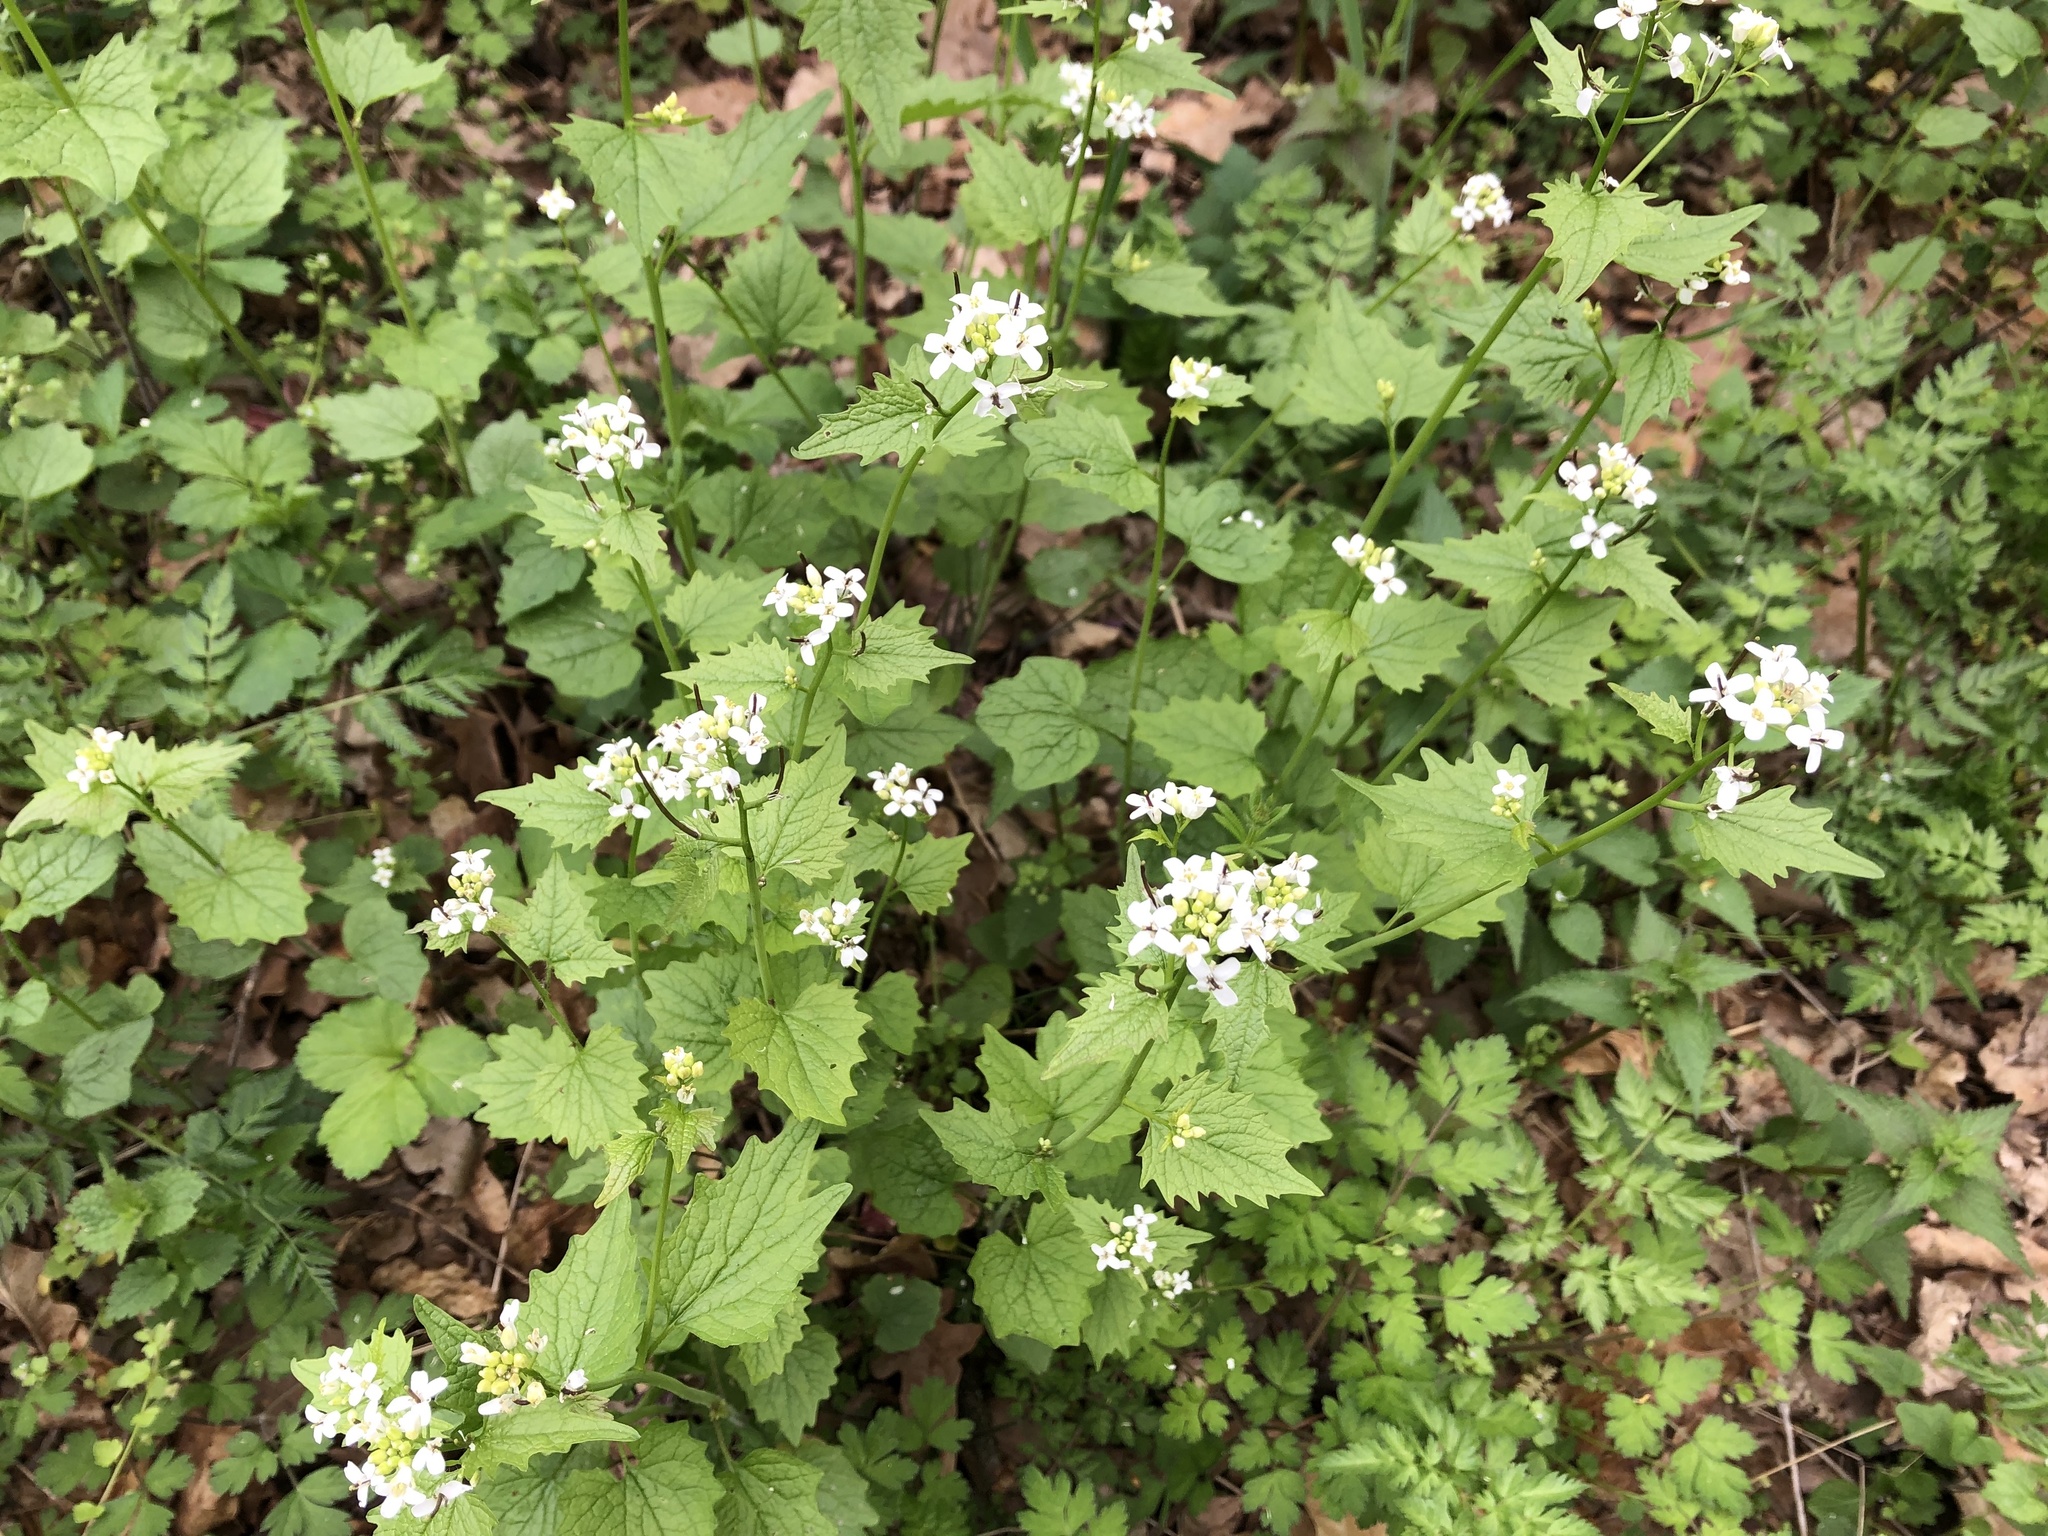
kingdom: Plantae
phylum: Tracheophyta
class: Magnoliopsida
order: Brassicales
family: Brassicaceae
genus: Alliaria
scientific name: Alliaria petiolata
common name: Garlic mustard
